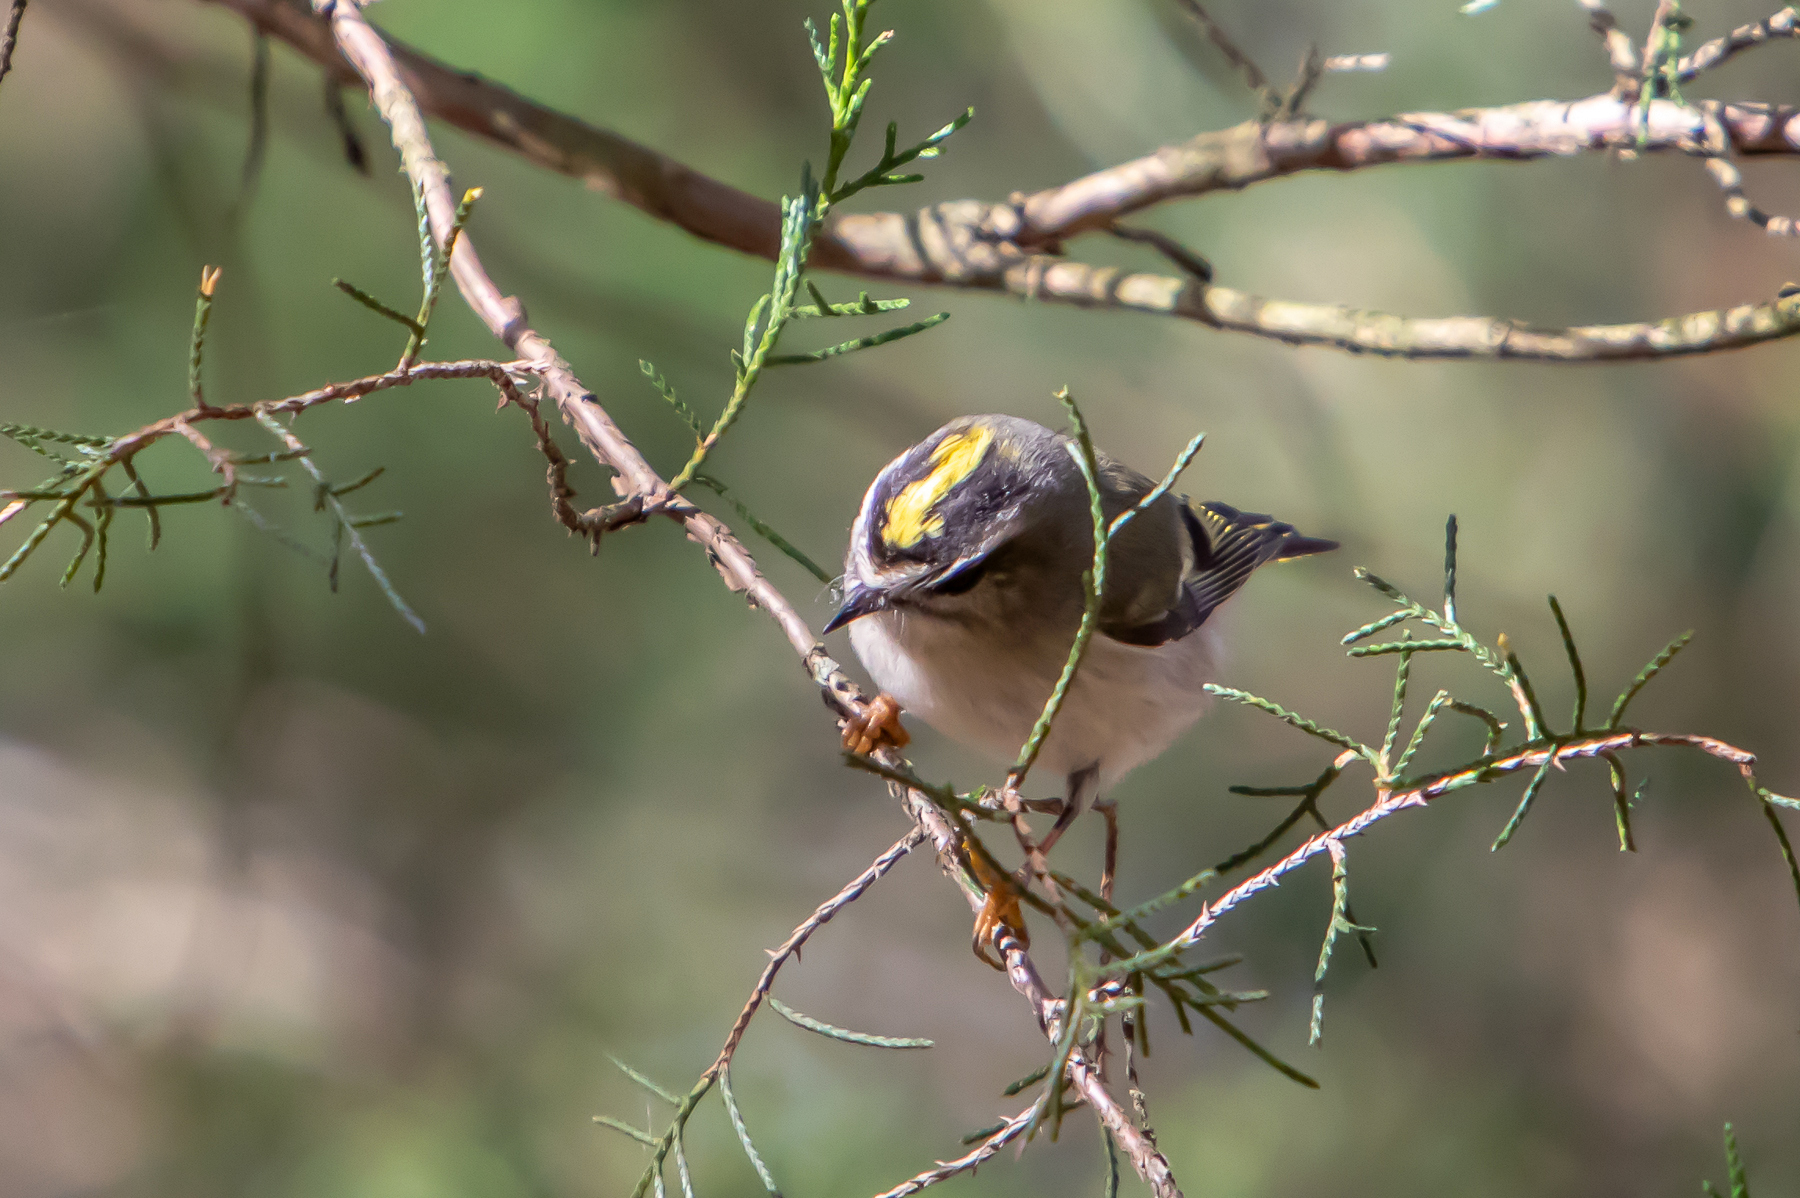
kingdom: Animalia
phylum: Chordata
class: Aves
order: Passeriformes
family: Regulidae
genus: Regulus
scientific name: Regulus satrapa
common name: Golden-crowned kinglet
